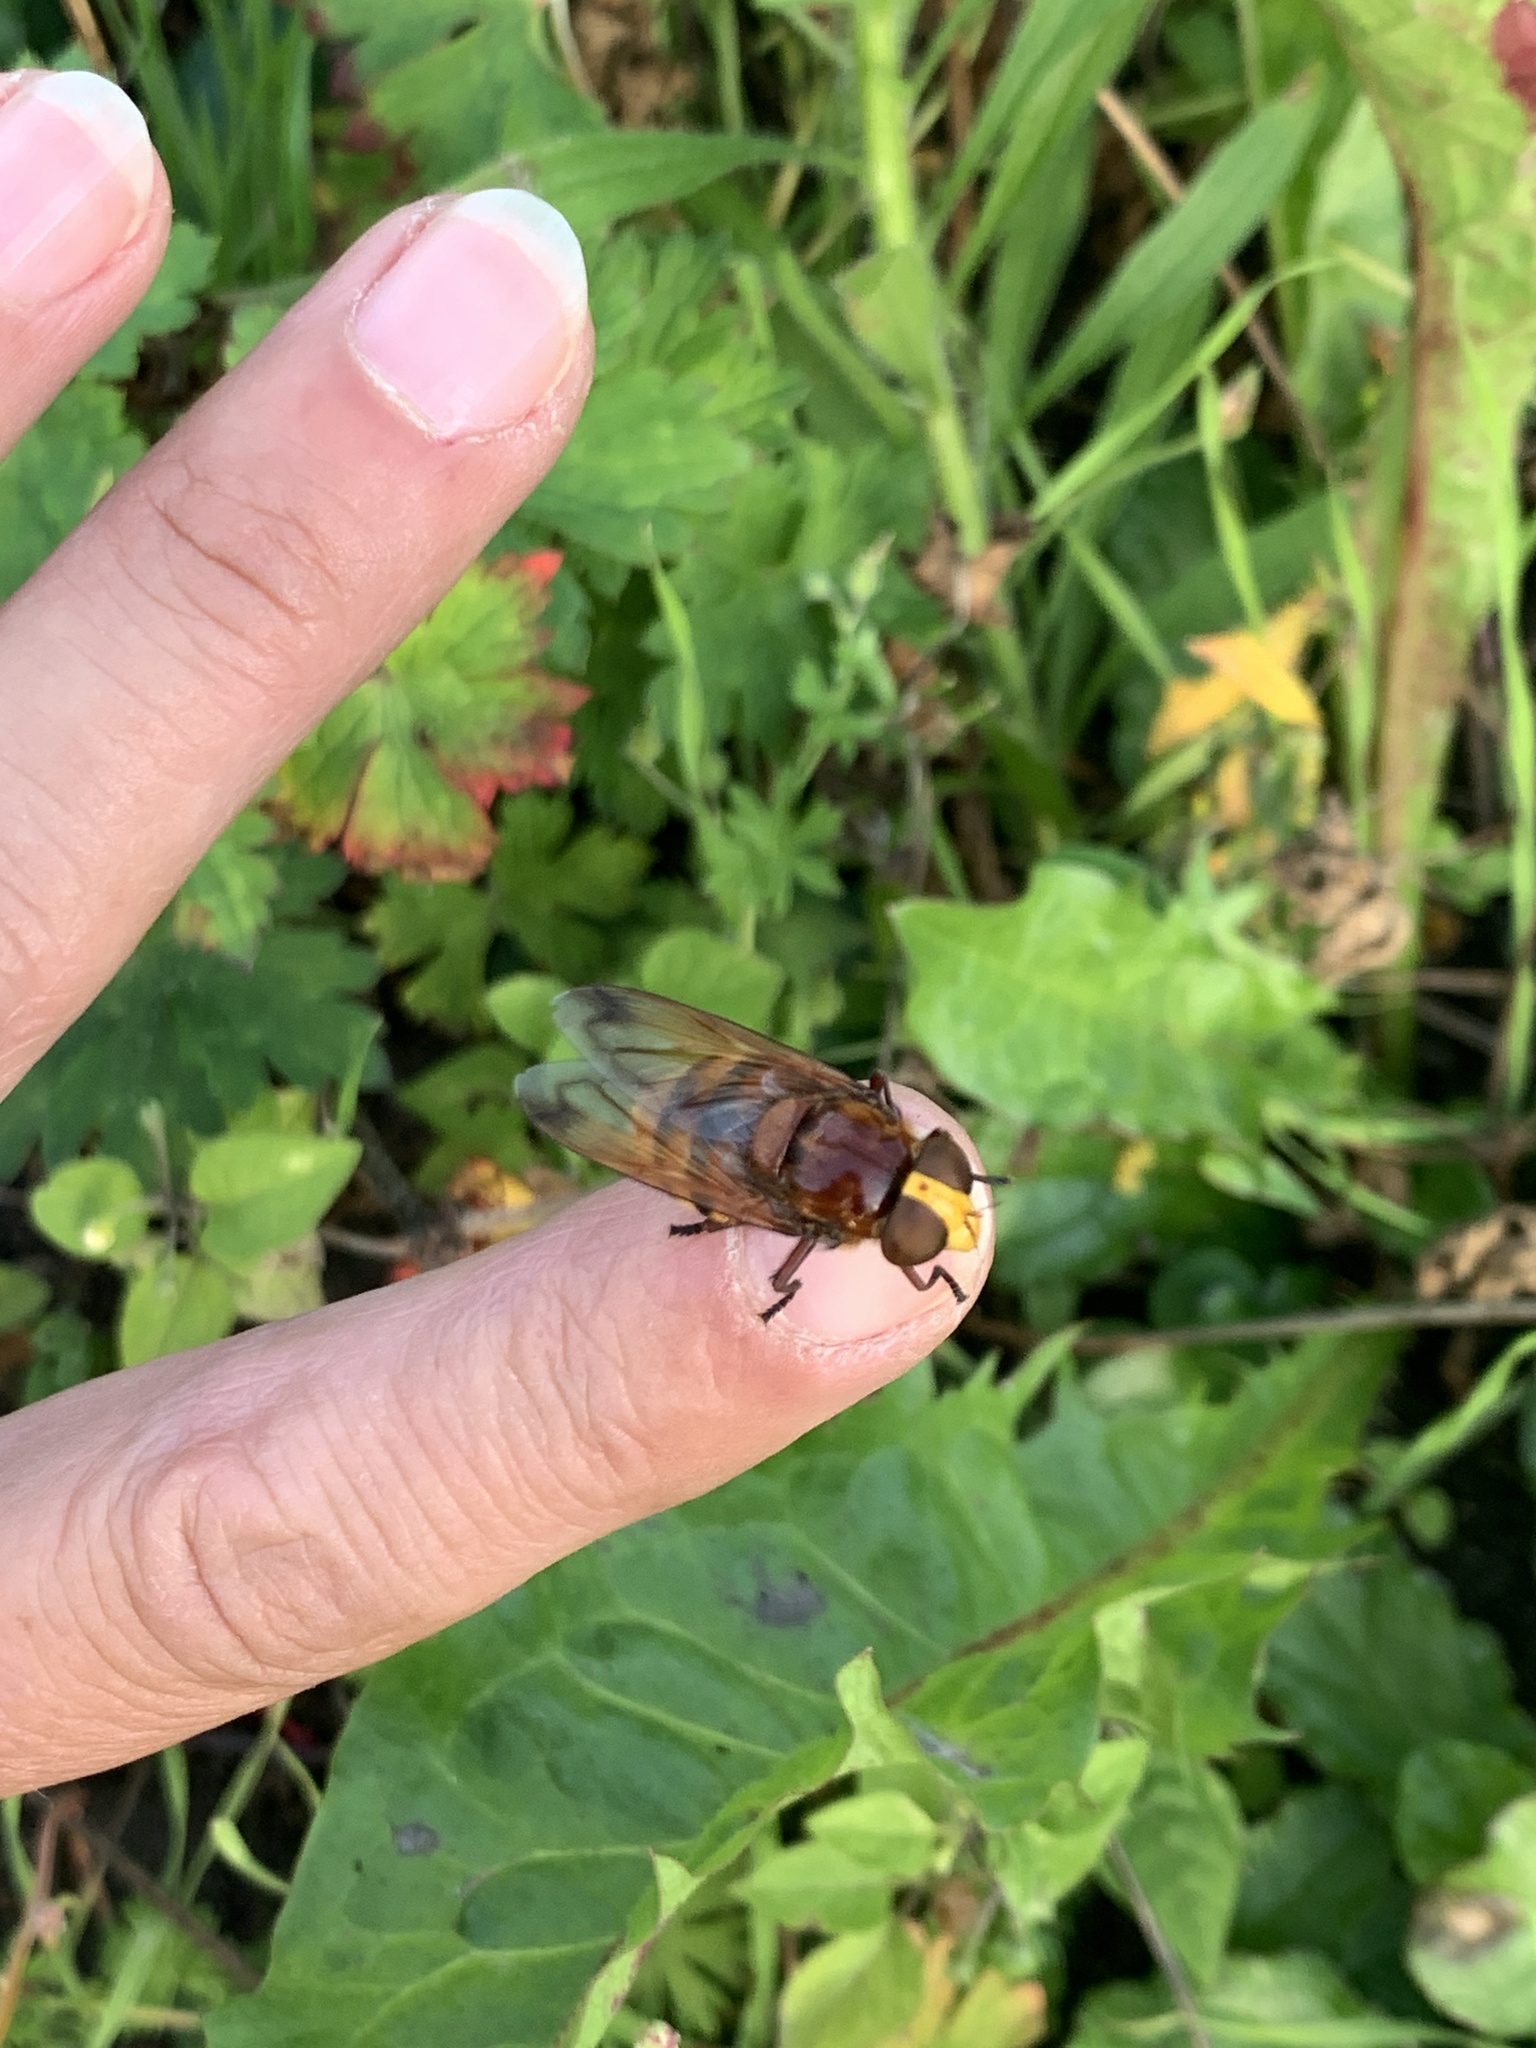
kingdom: Animalia
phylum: Arthropoda
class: Insecta
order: Diptera
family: Syrphidae
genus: Volucella
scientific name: Volucella zonaria
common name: Hornet hoverfly
